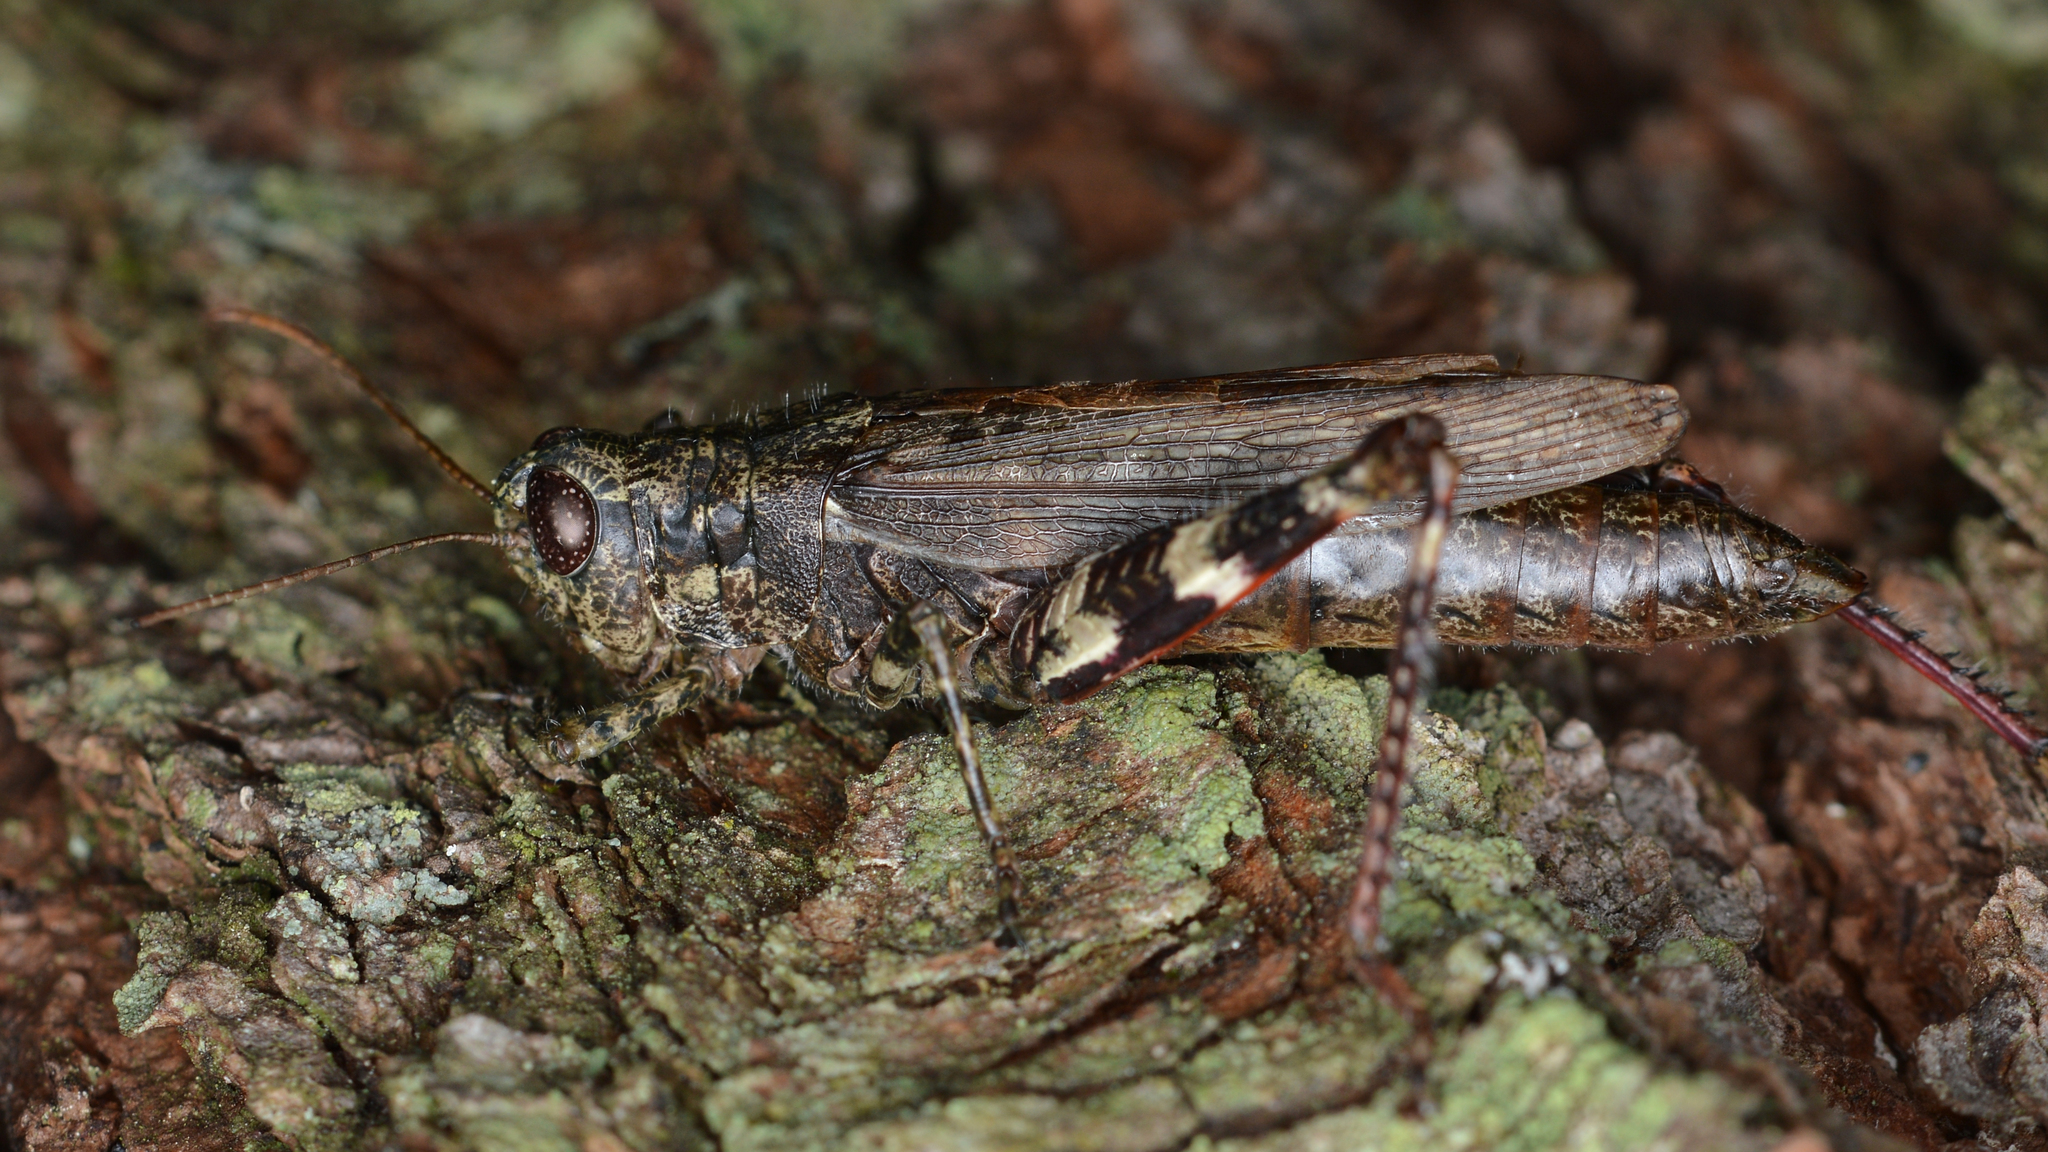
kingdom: Animalia
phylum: Arthropoda
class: Insecta
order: Orthoptera
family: Acrididae
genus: Melanoplus
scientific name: Melanoplus punctulatus
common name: Pine-tree spur-throat grasshopper
